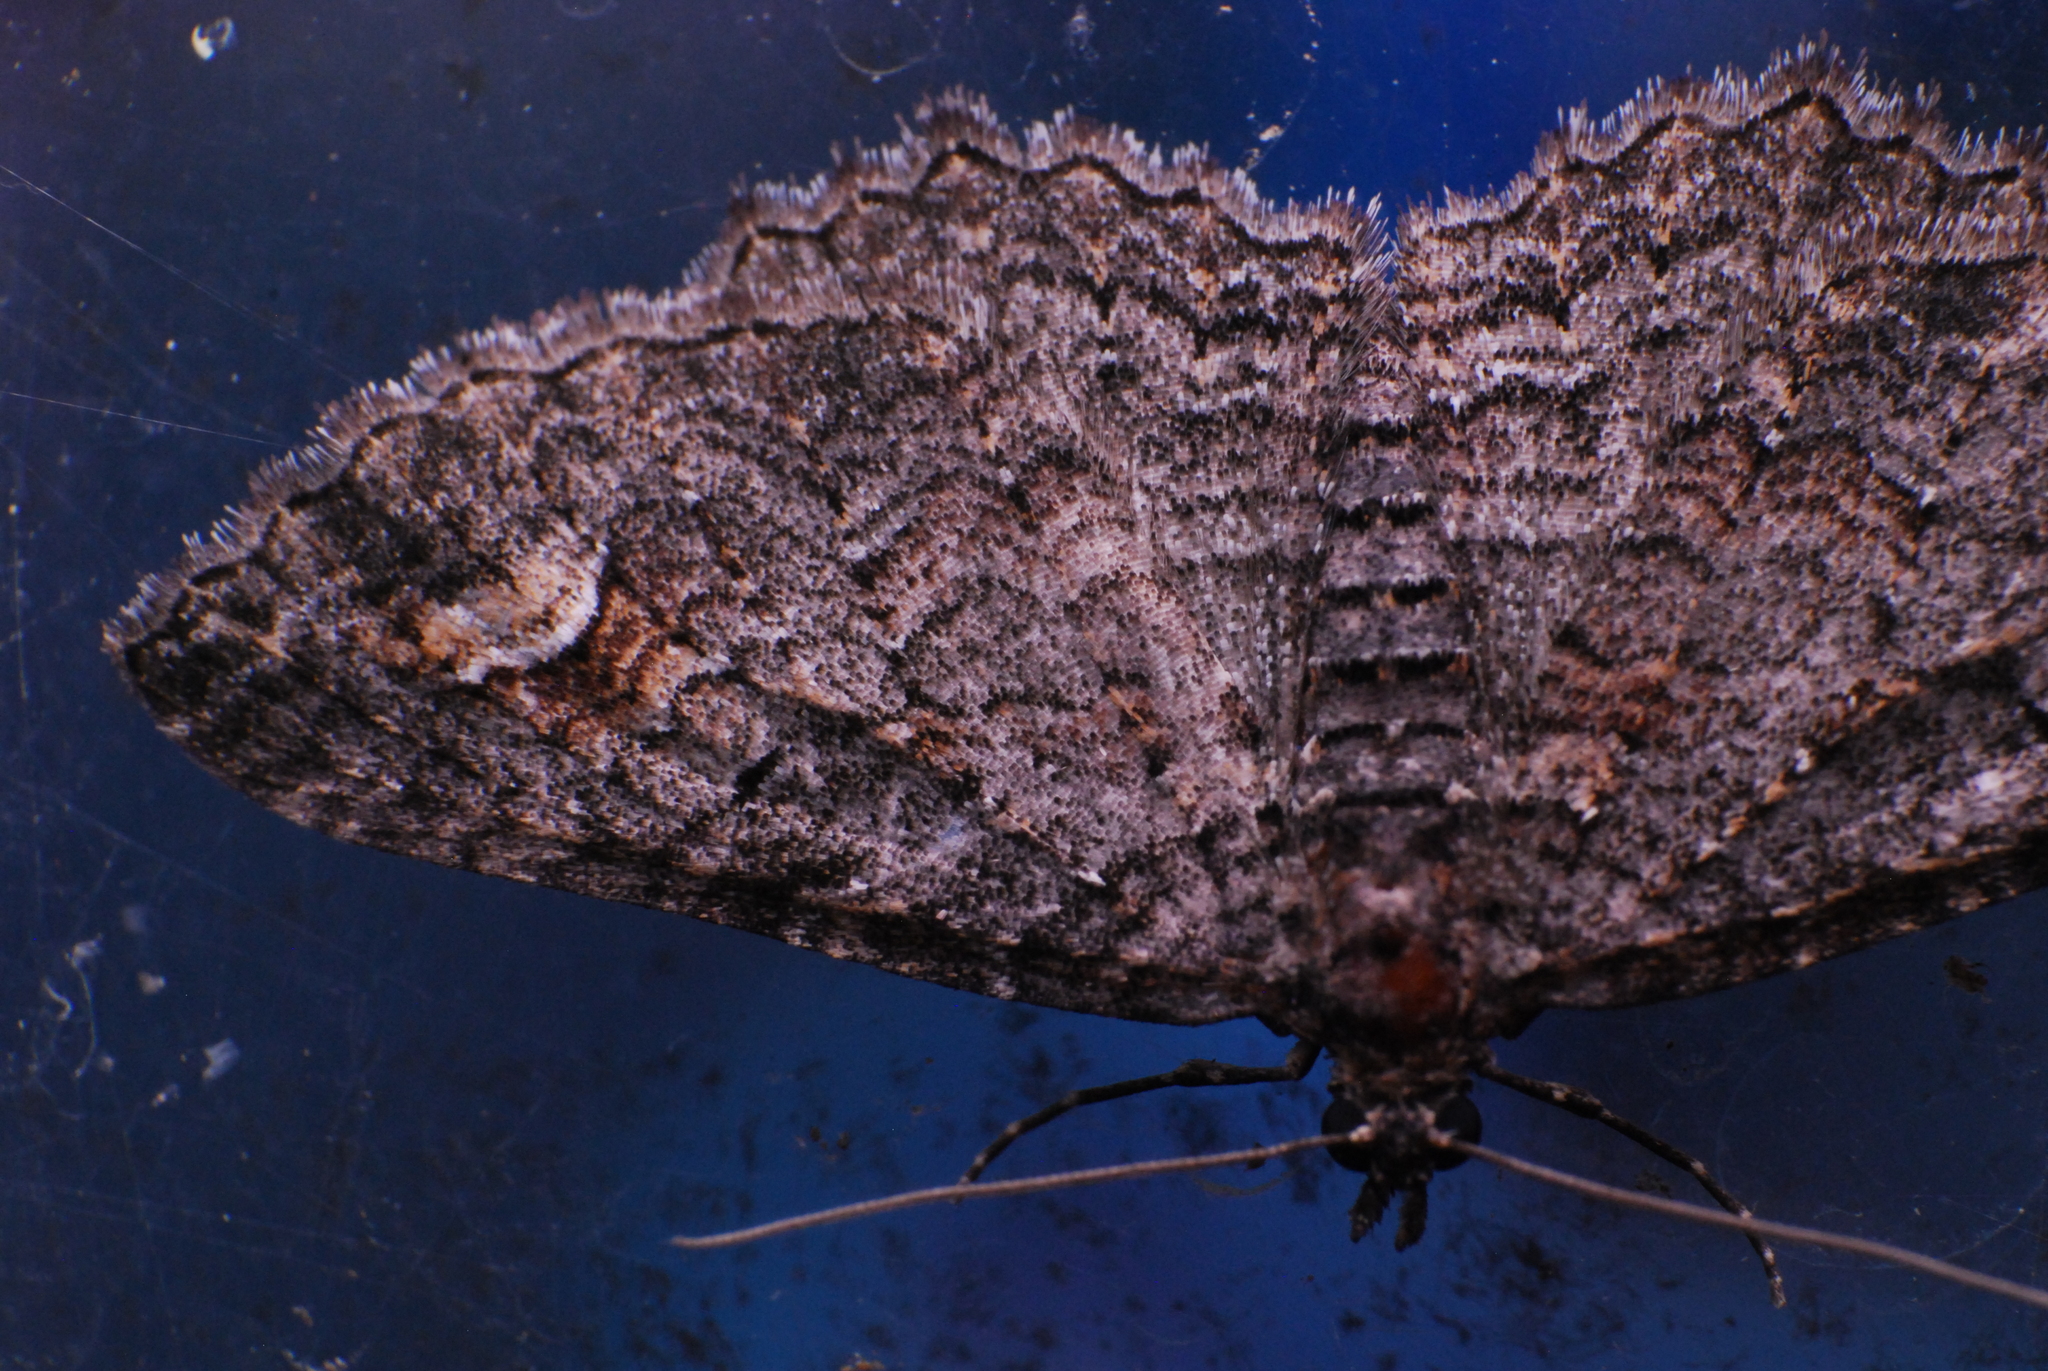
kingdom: Animalia
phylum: Arthropoda
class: Insecta
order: Lepidoptera
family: Geometridae
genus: Eupithecia
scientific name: Eupithecia Eucymatoge scotodes
